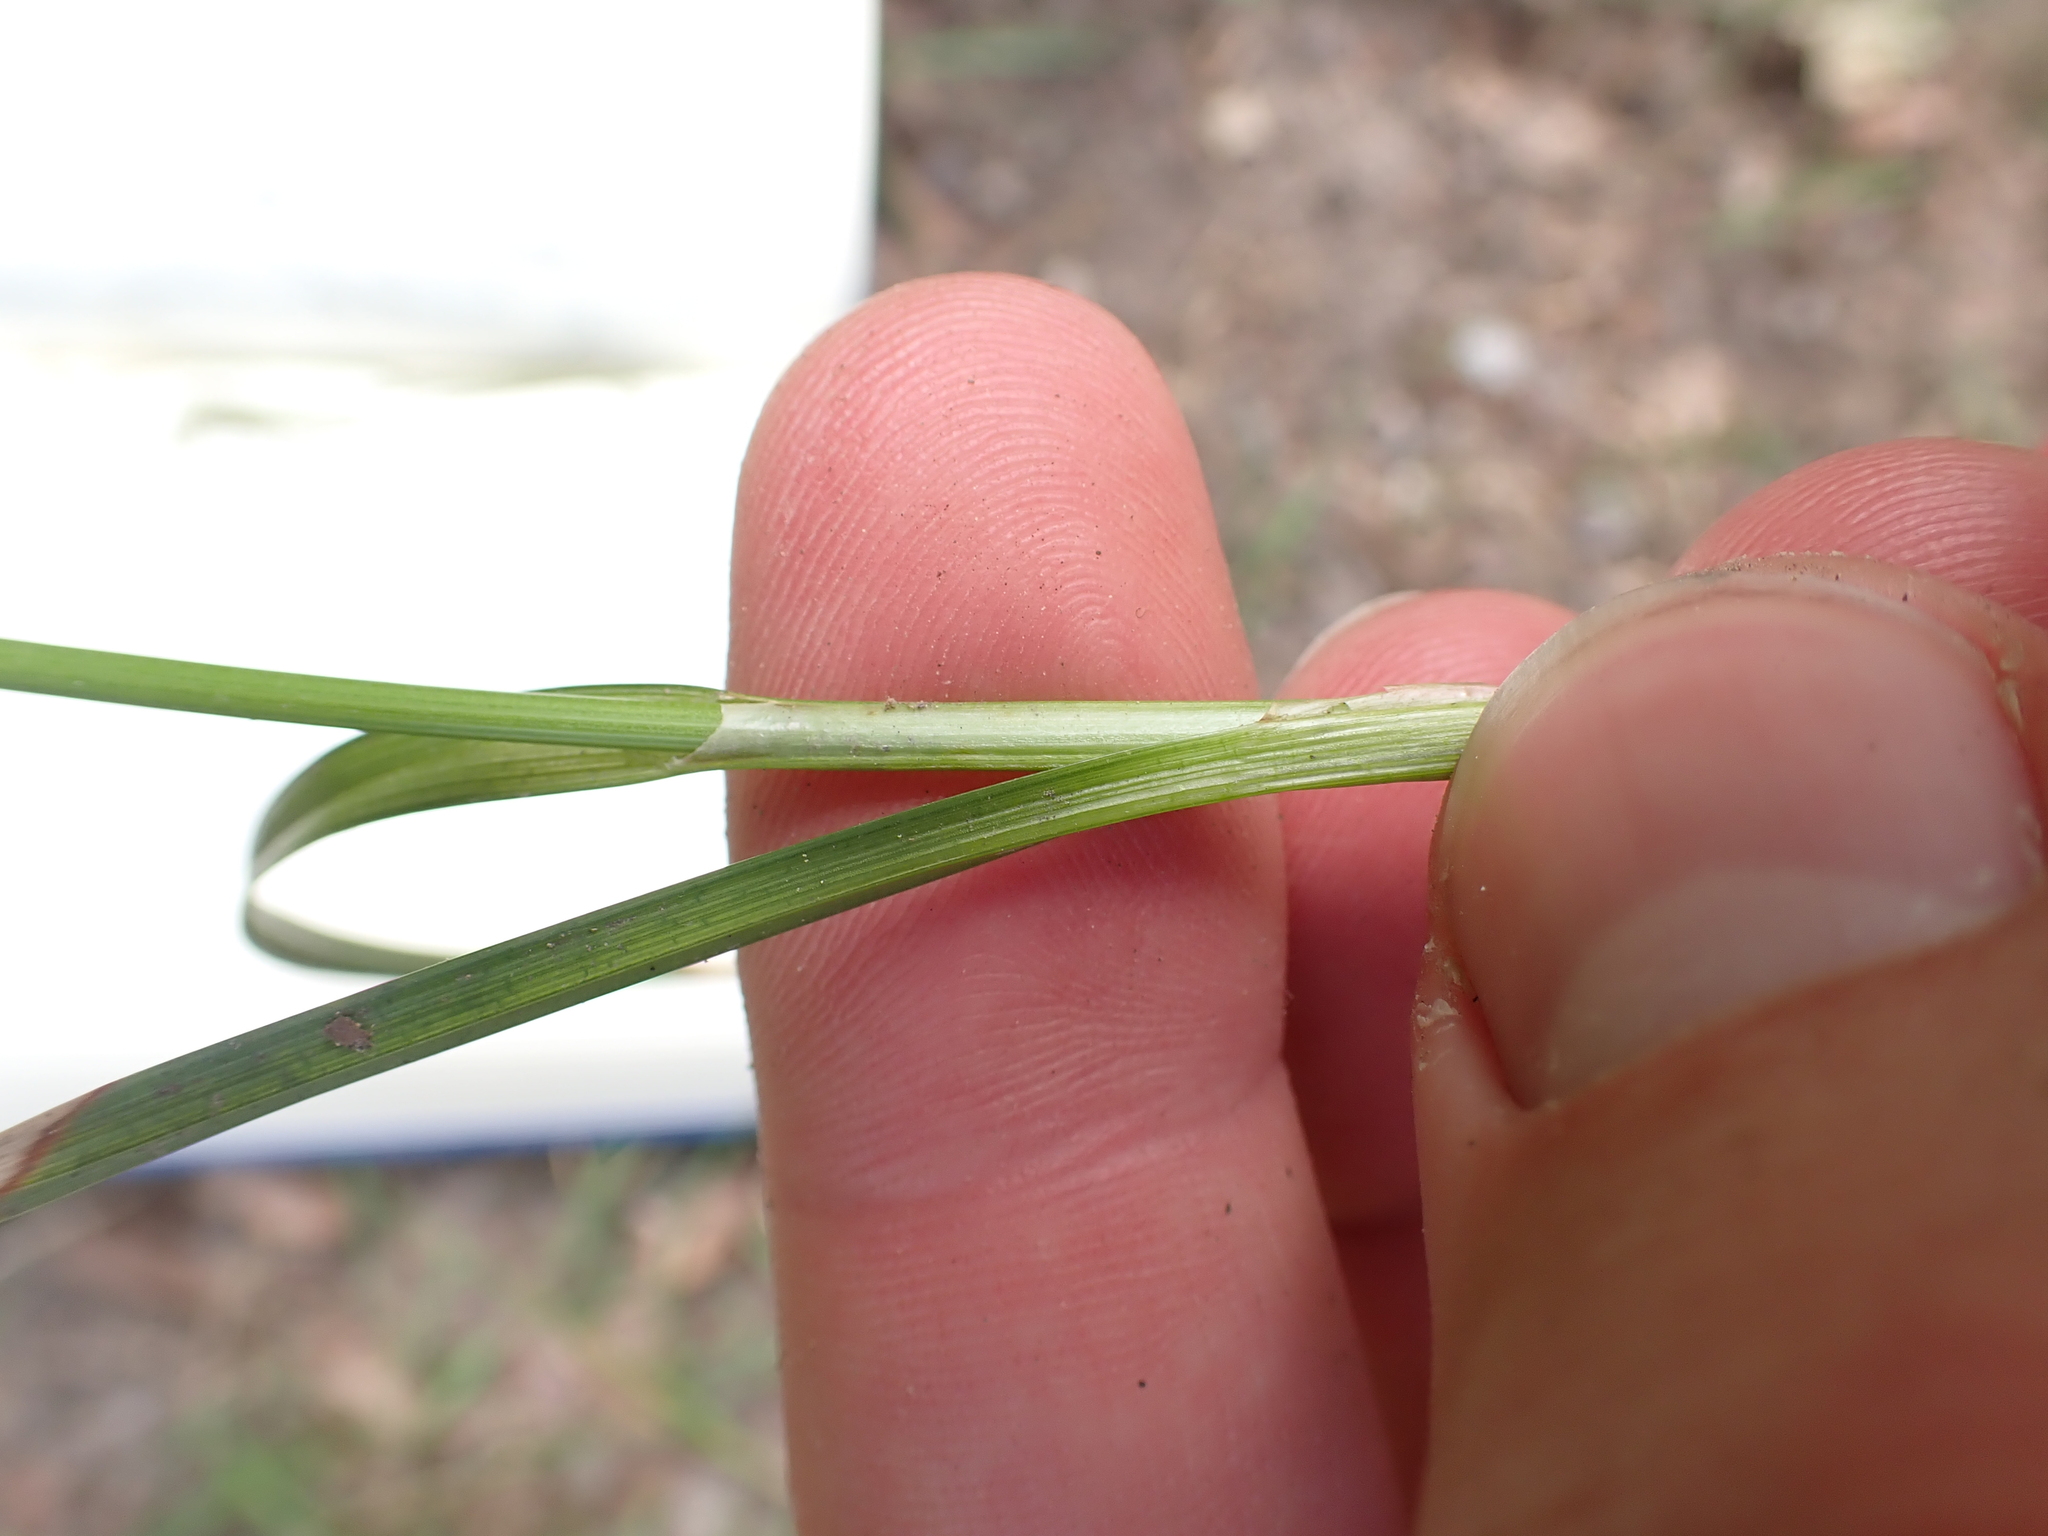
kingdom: Plantae
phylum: Tracheophyta
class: Liliopsida
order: Poales
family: Cyperaceae
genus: Carex
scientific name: Carex demissa
